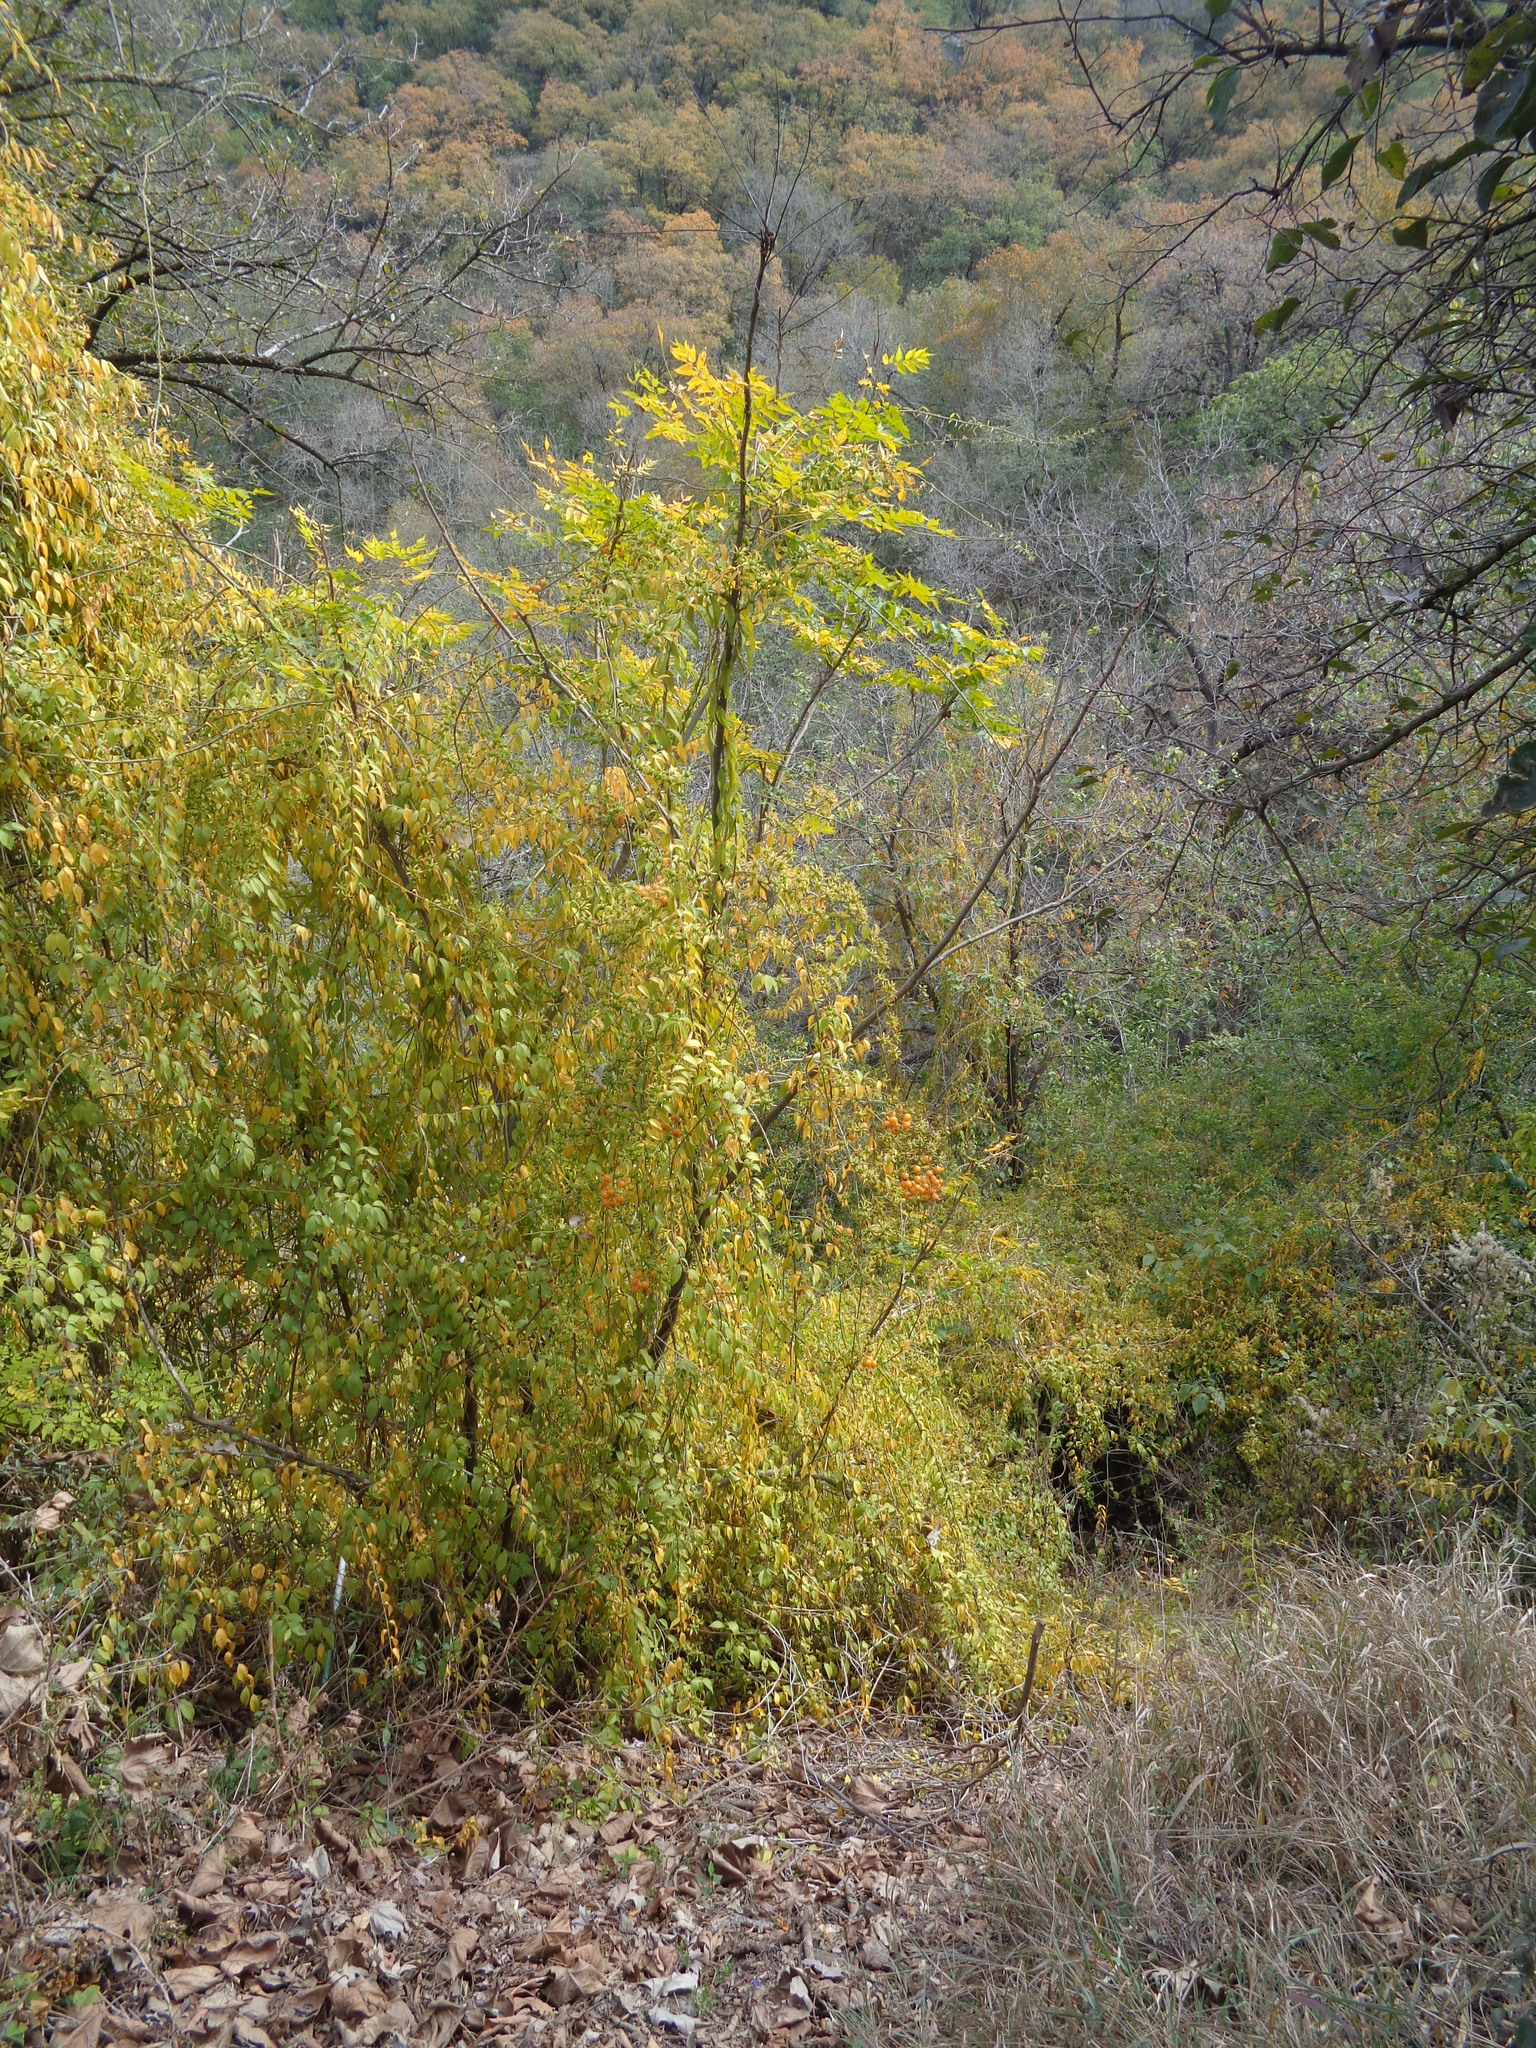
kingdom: Plantae
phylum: Tracheophyta
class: Magnoliopsida
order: Caryophyllales
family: Cactaceae
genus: Pereskia
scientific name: Pereskia aculeata
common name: Barbados gooseberry
